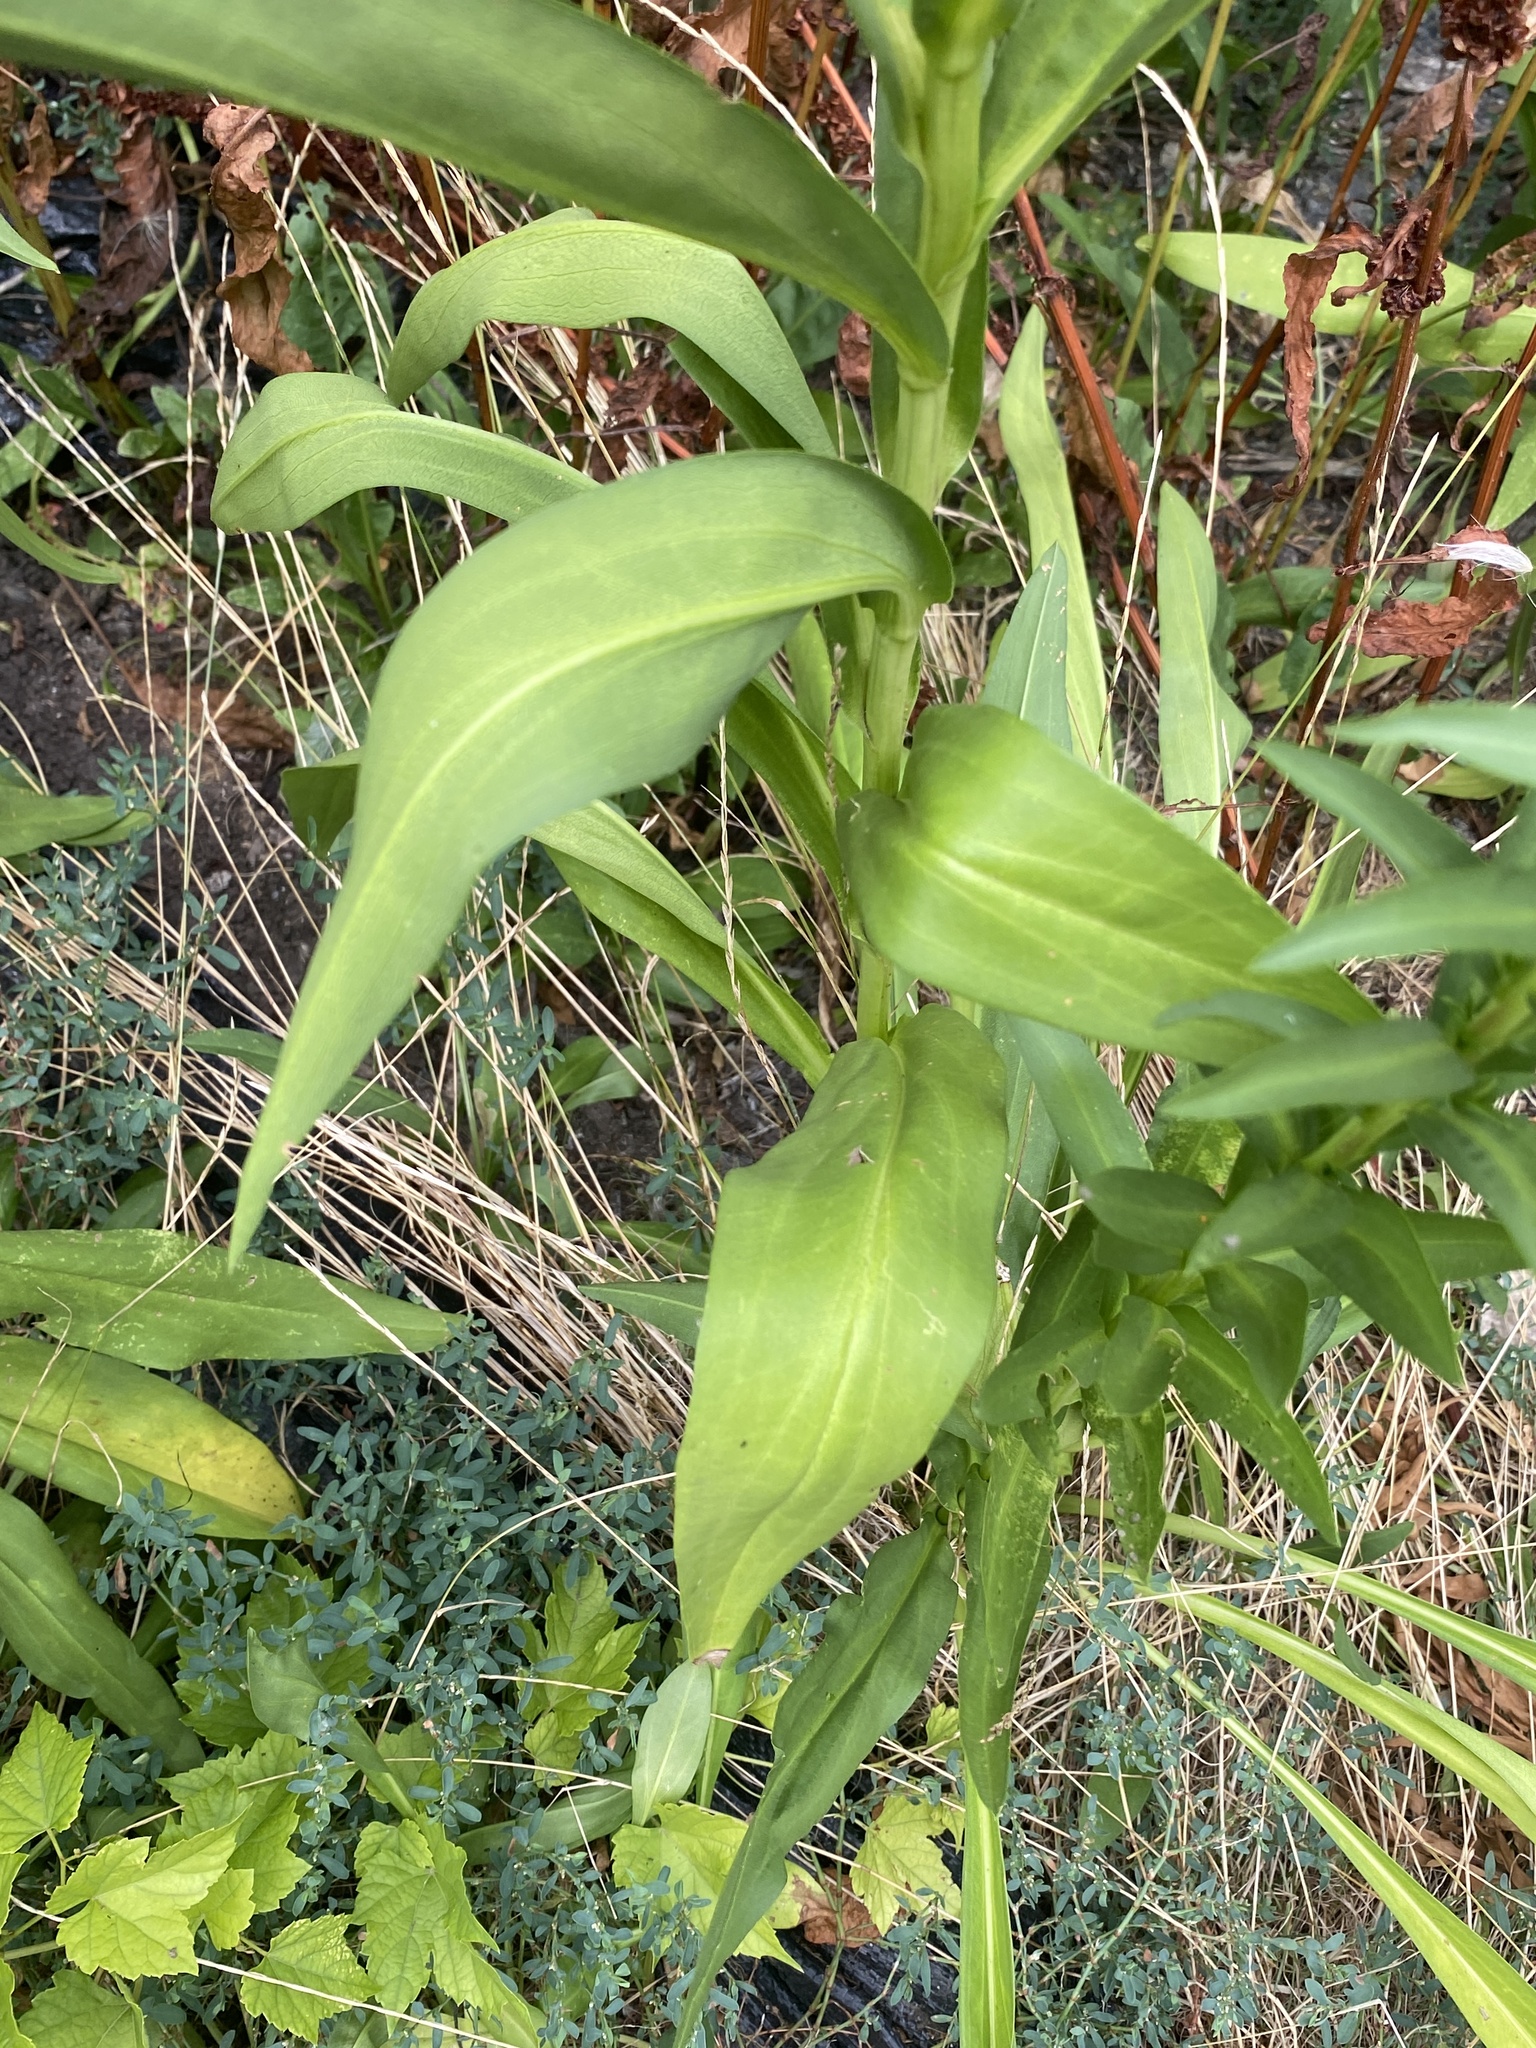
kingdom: Plantae
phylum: Tracheophyta
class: Magnoliopsida
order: Asterales
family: Asteraceae
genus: Solidago
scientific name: Solidago sempervirens
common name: Salt-marsh goldenrod
